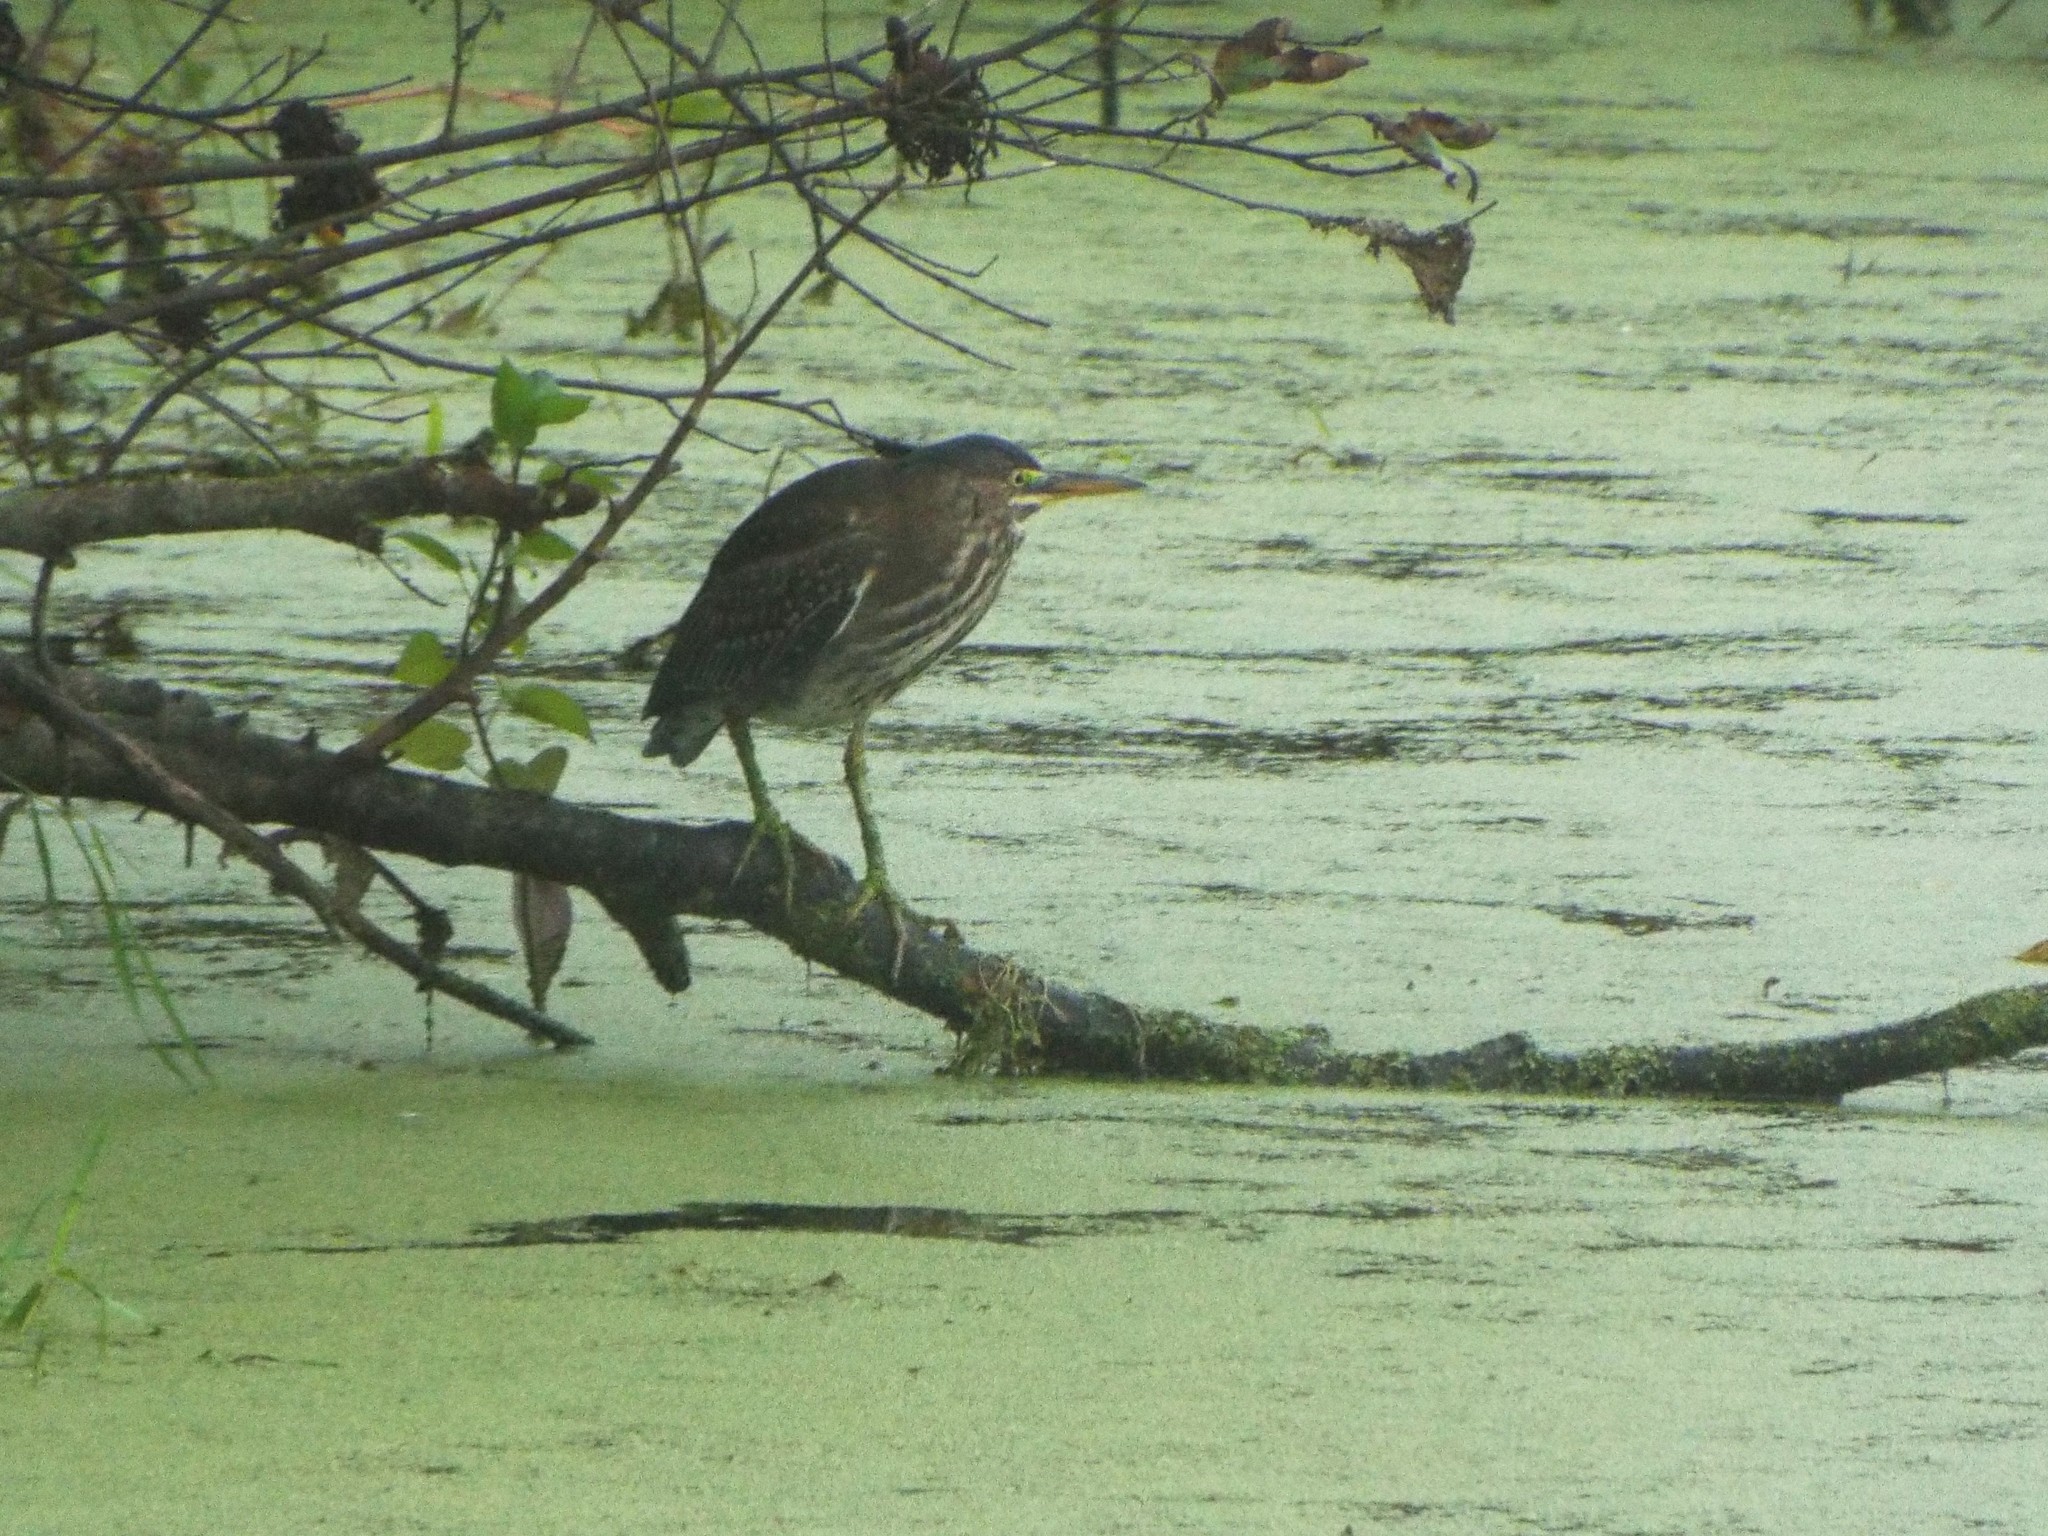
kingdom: Animalia
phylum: Chordata
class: Aves
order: Pelecaniformes
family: Ardeidae
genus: Butorides
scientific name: Butorides virescens
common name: Green heron
